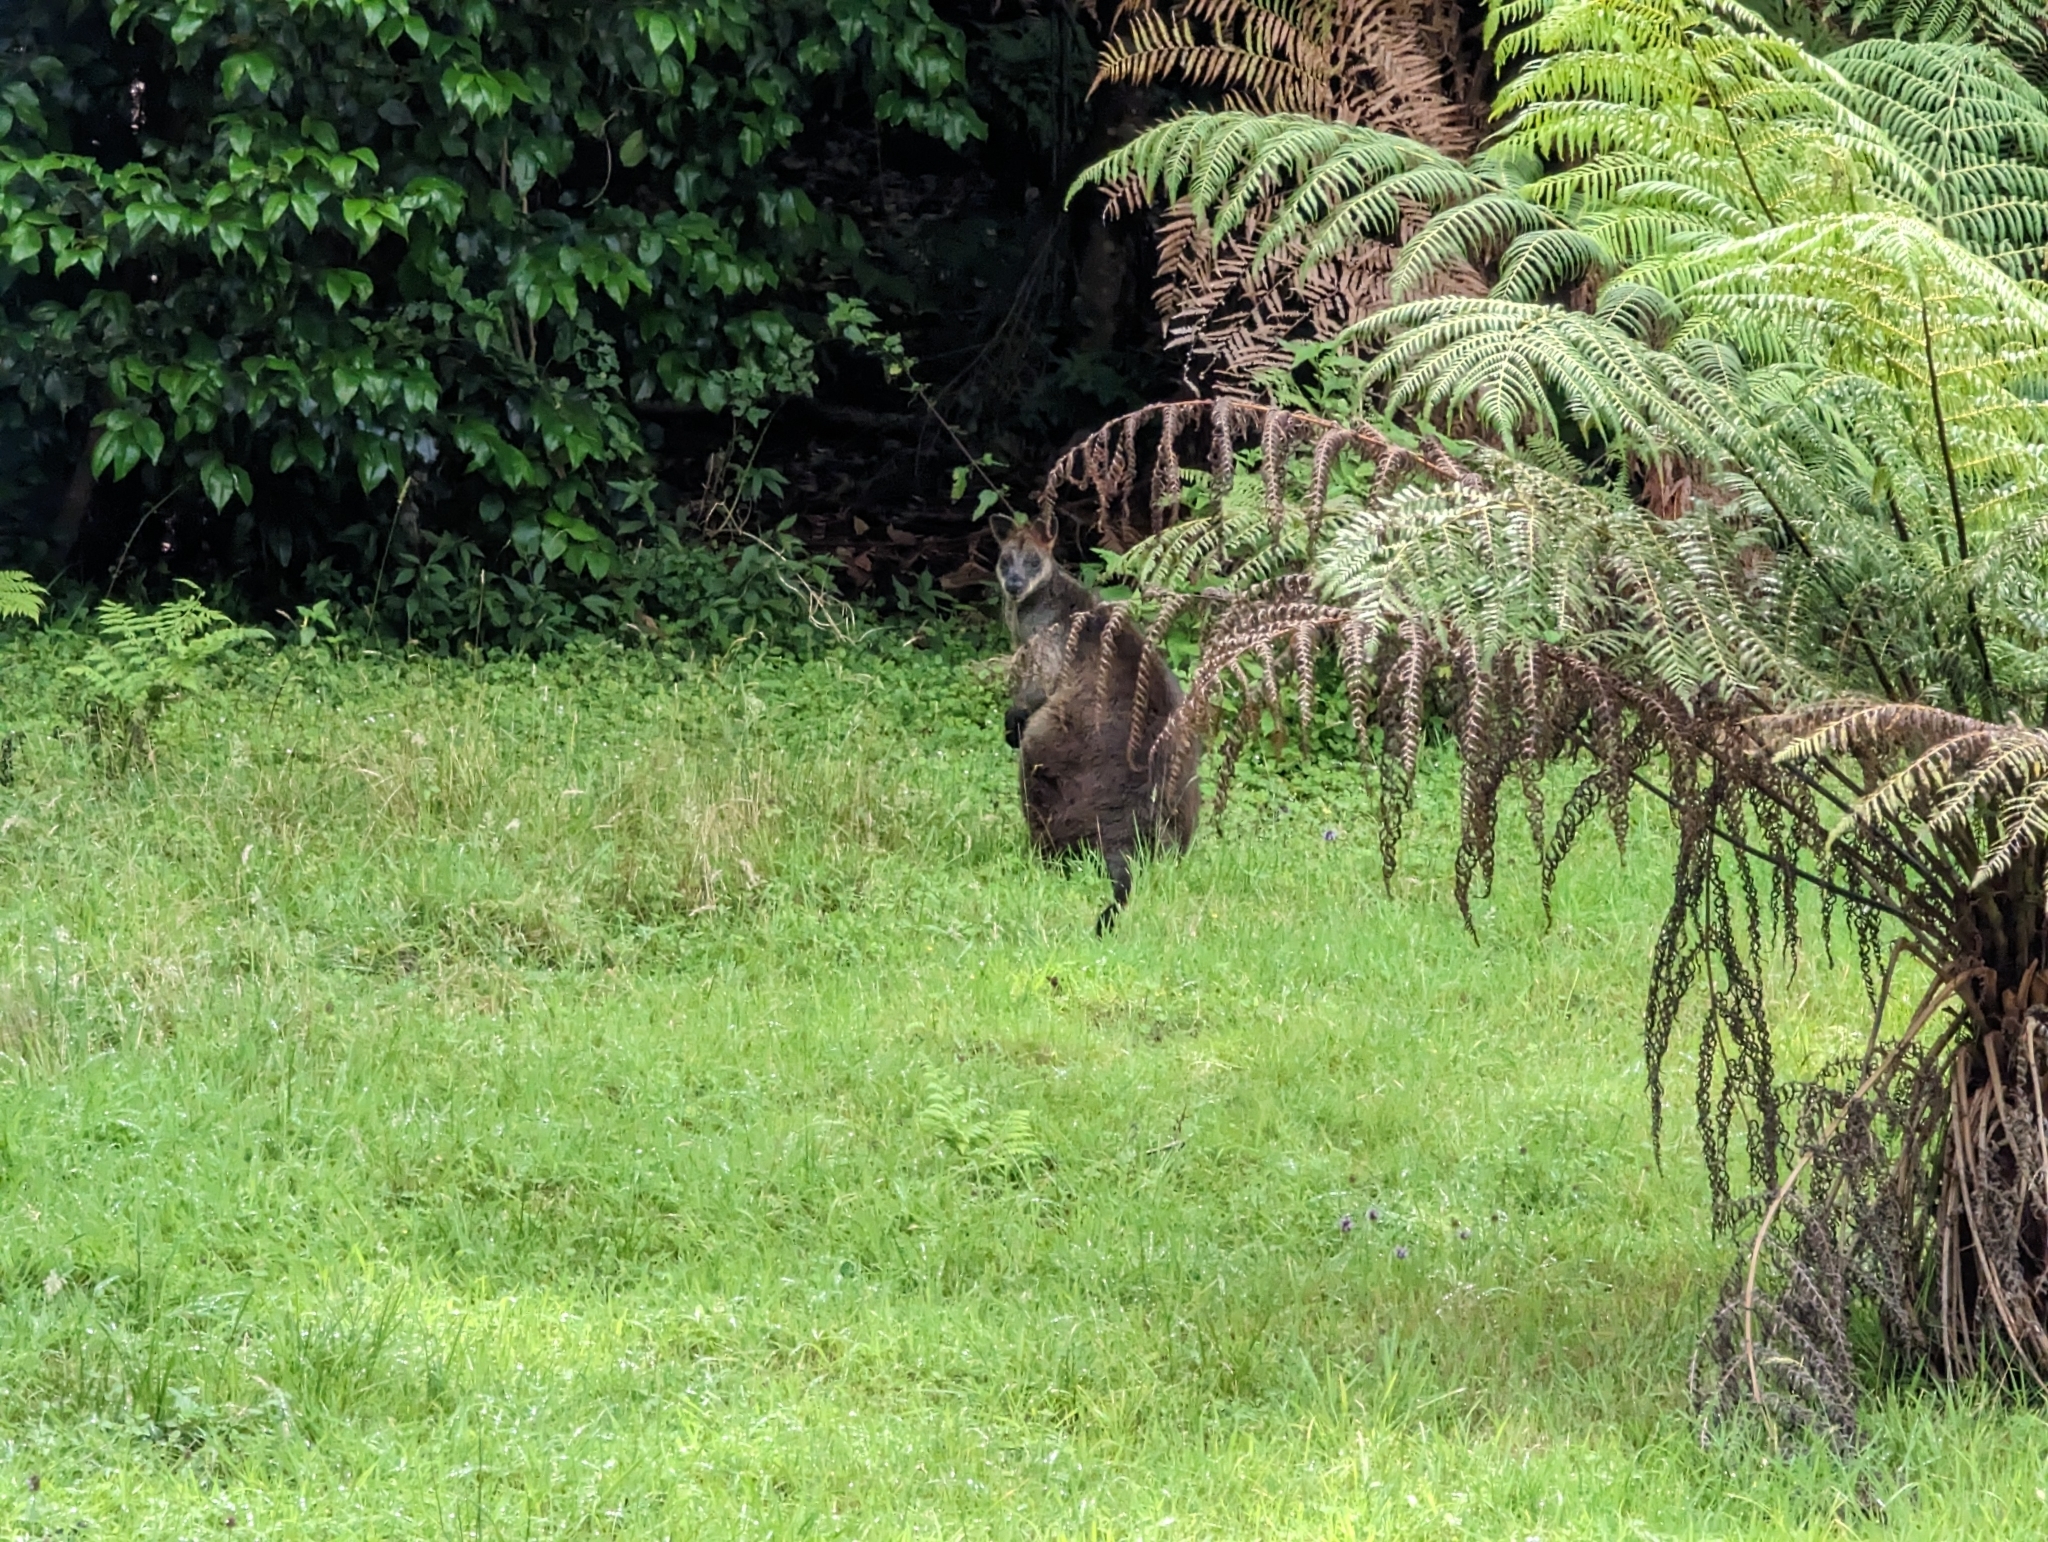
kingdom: Animalia
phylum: Chordata
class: Mammalia
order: Diprotodontia
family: Macropodidae
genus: Wallabia
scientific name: Wallabia bicolor
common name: Swamp wallaby
